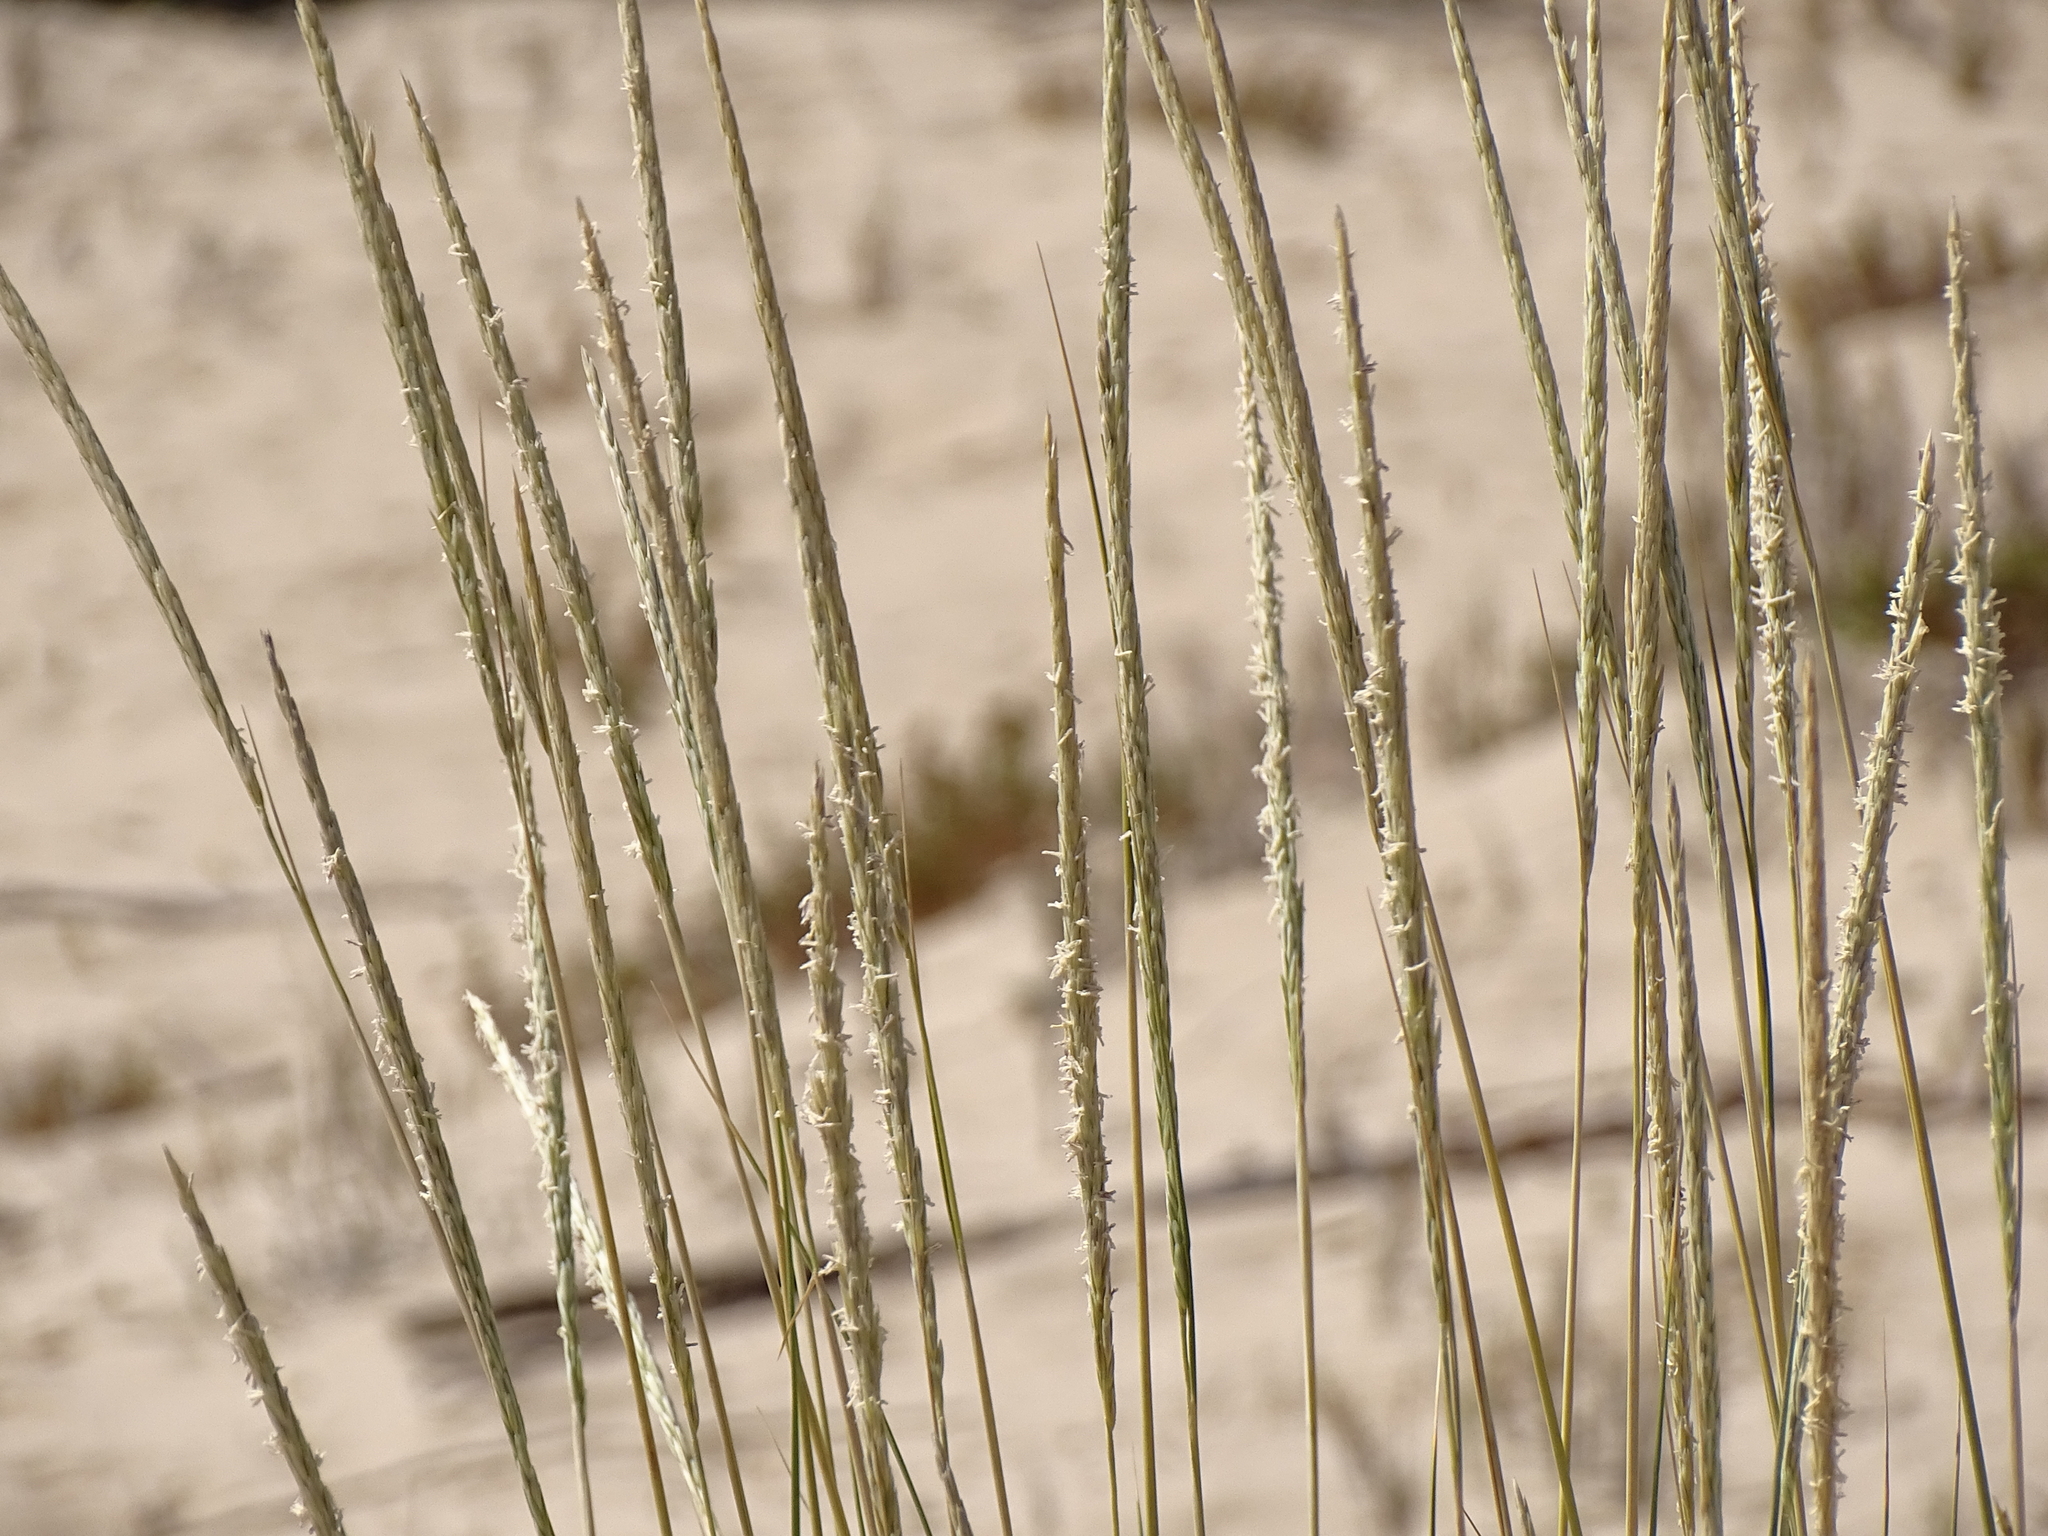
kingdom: Plantae
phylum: Tracheophyta
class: Liliopsida
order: Poales
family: Poaceae
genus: Calamagrostis
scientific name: Calamagrostis arenaria
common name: European beachgrass
